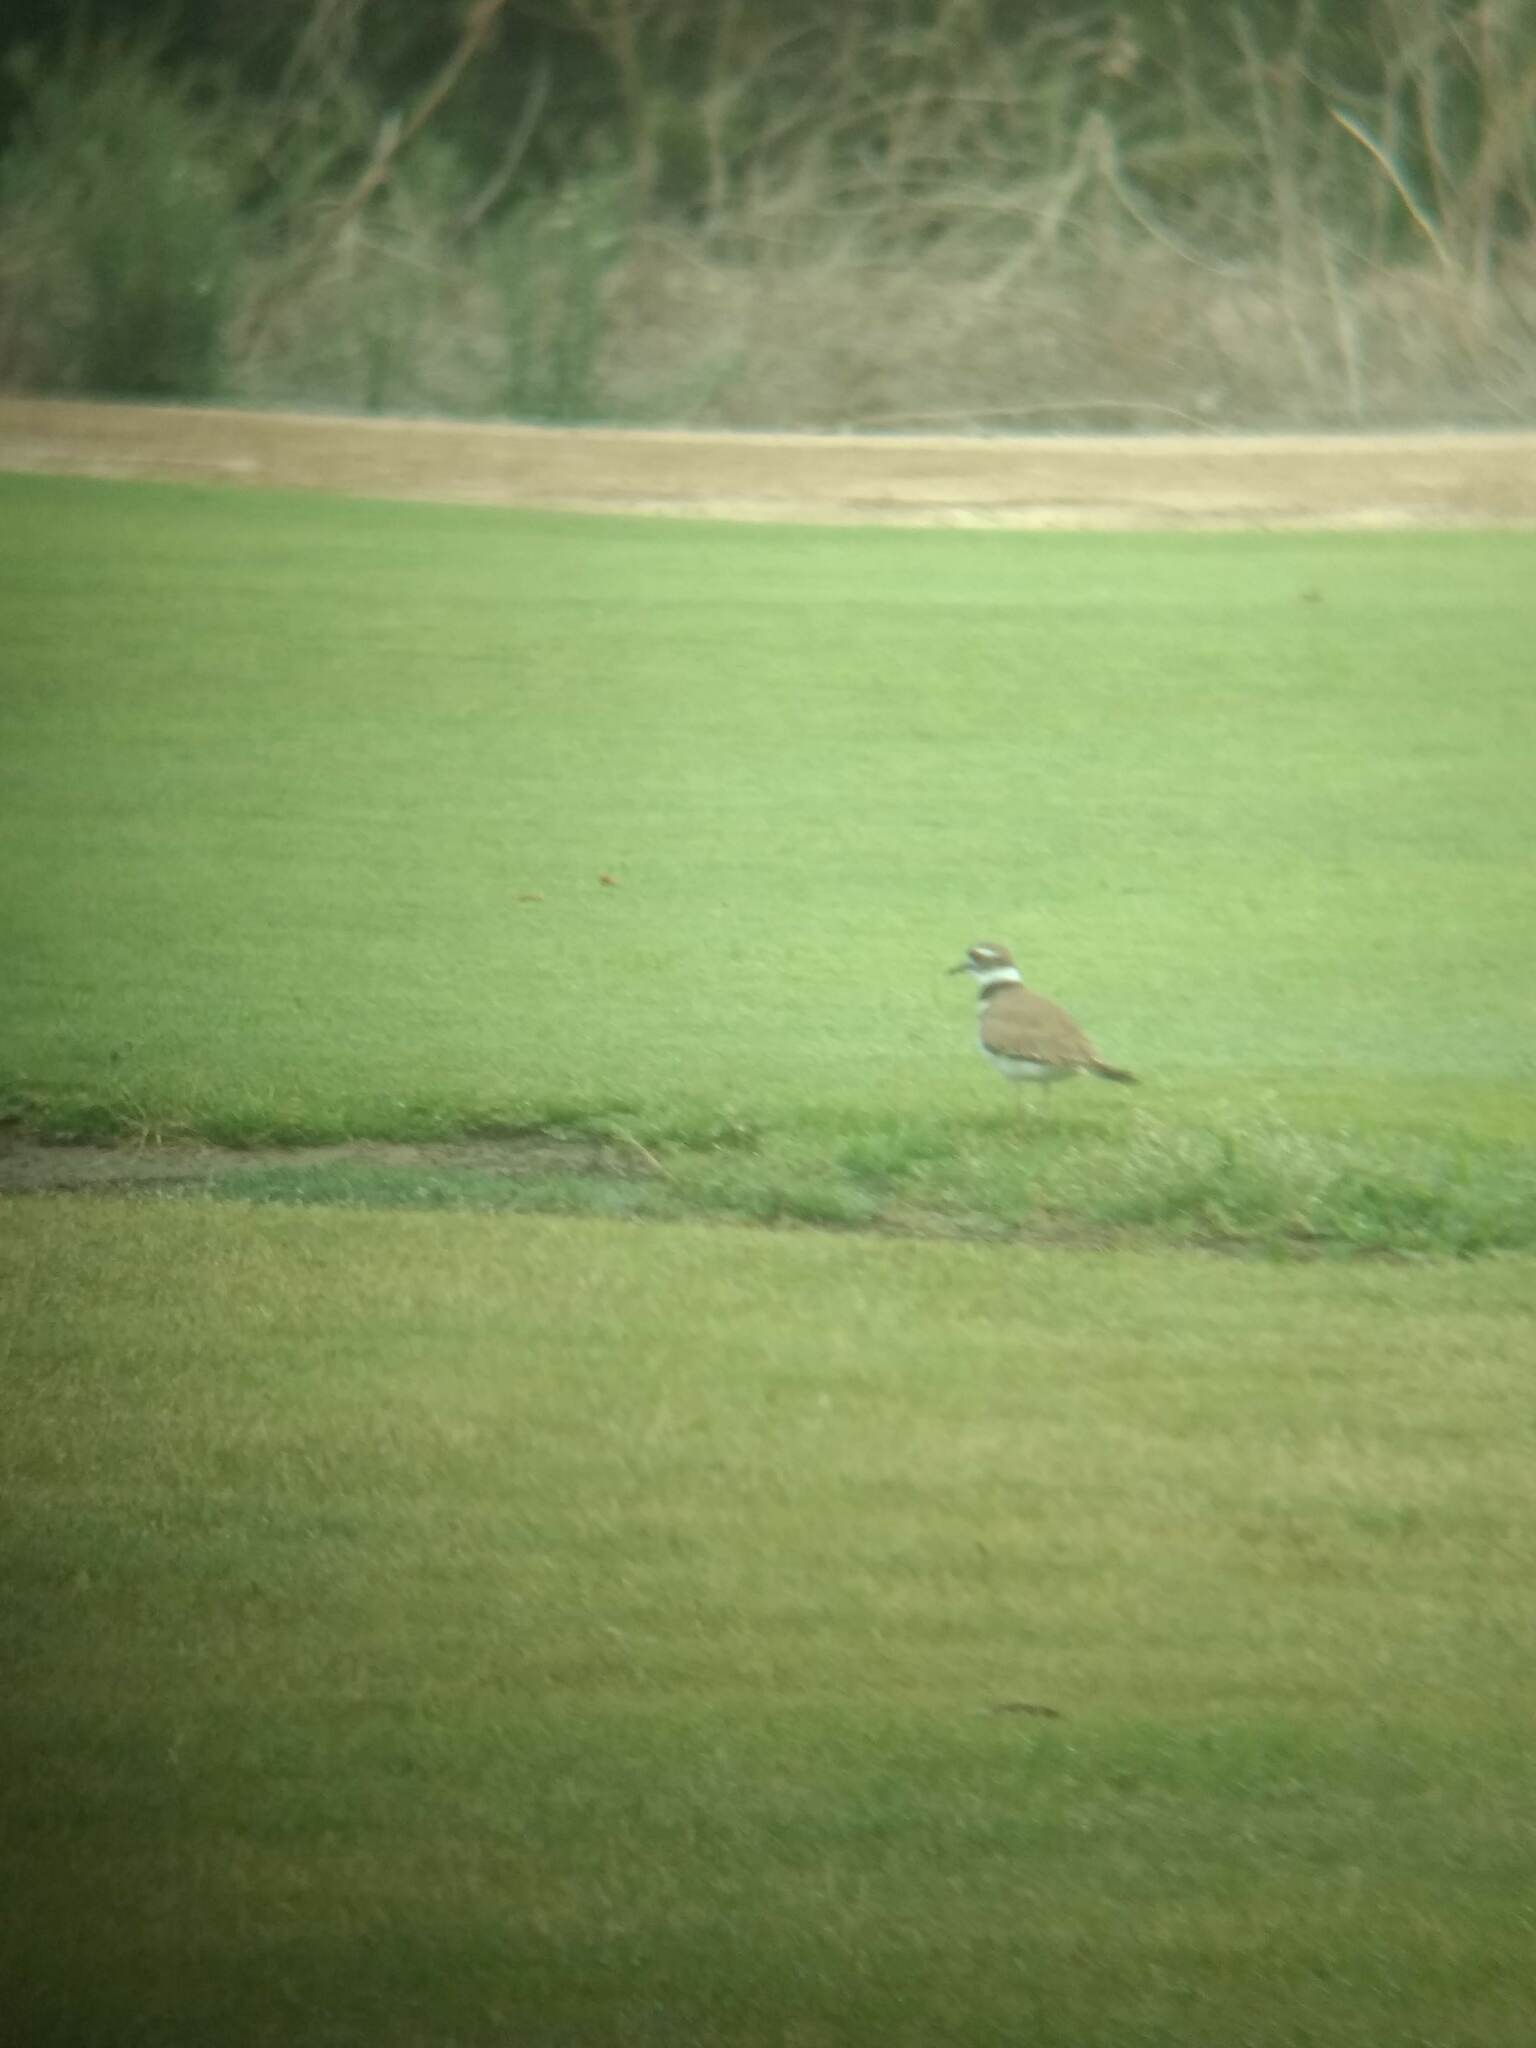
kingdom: Animalia
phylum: Chordata
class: Aves
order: Charadriiformes
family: Charadriidae
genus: Charadrius
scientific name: Charadrius vociferus
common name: Killdeer
